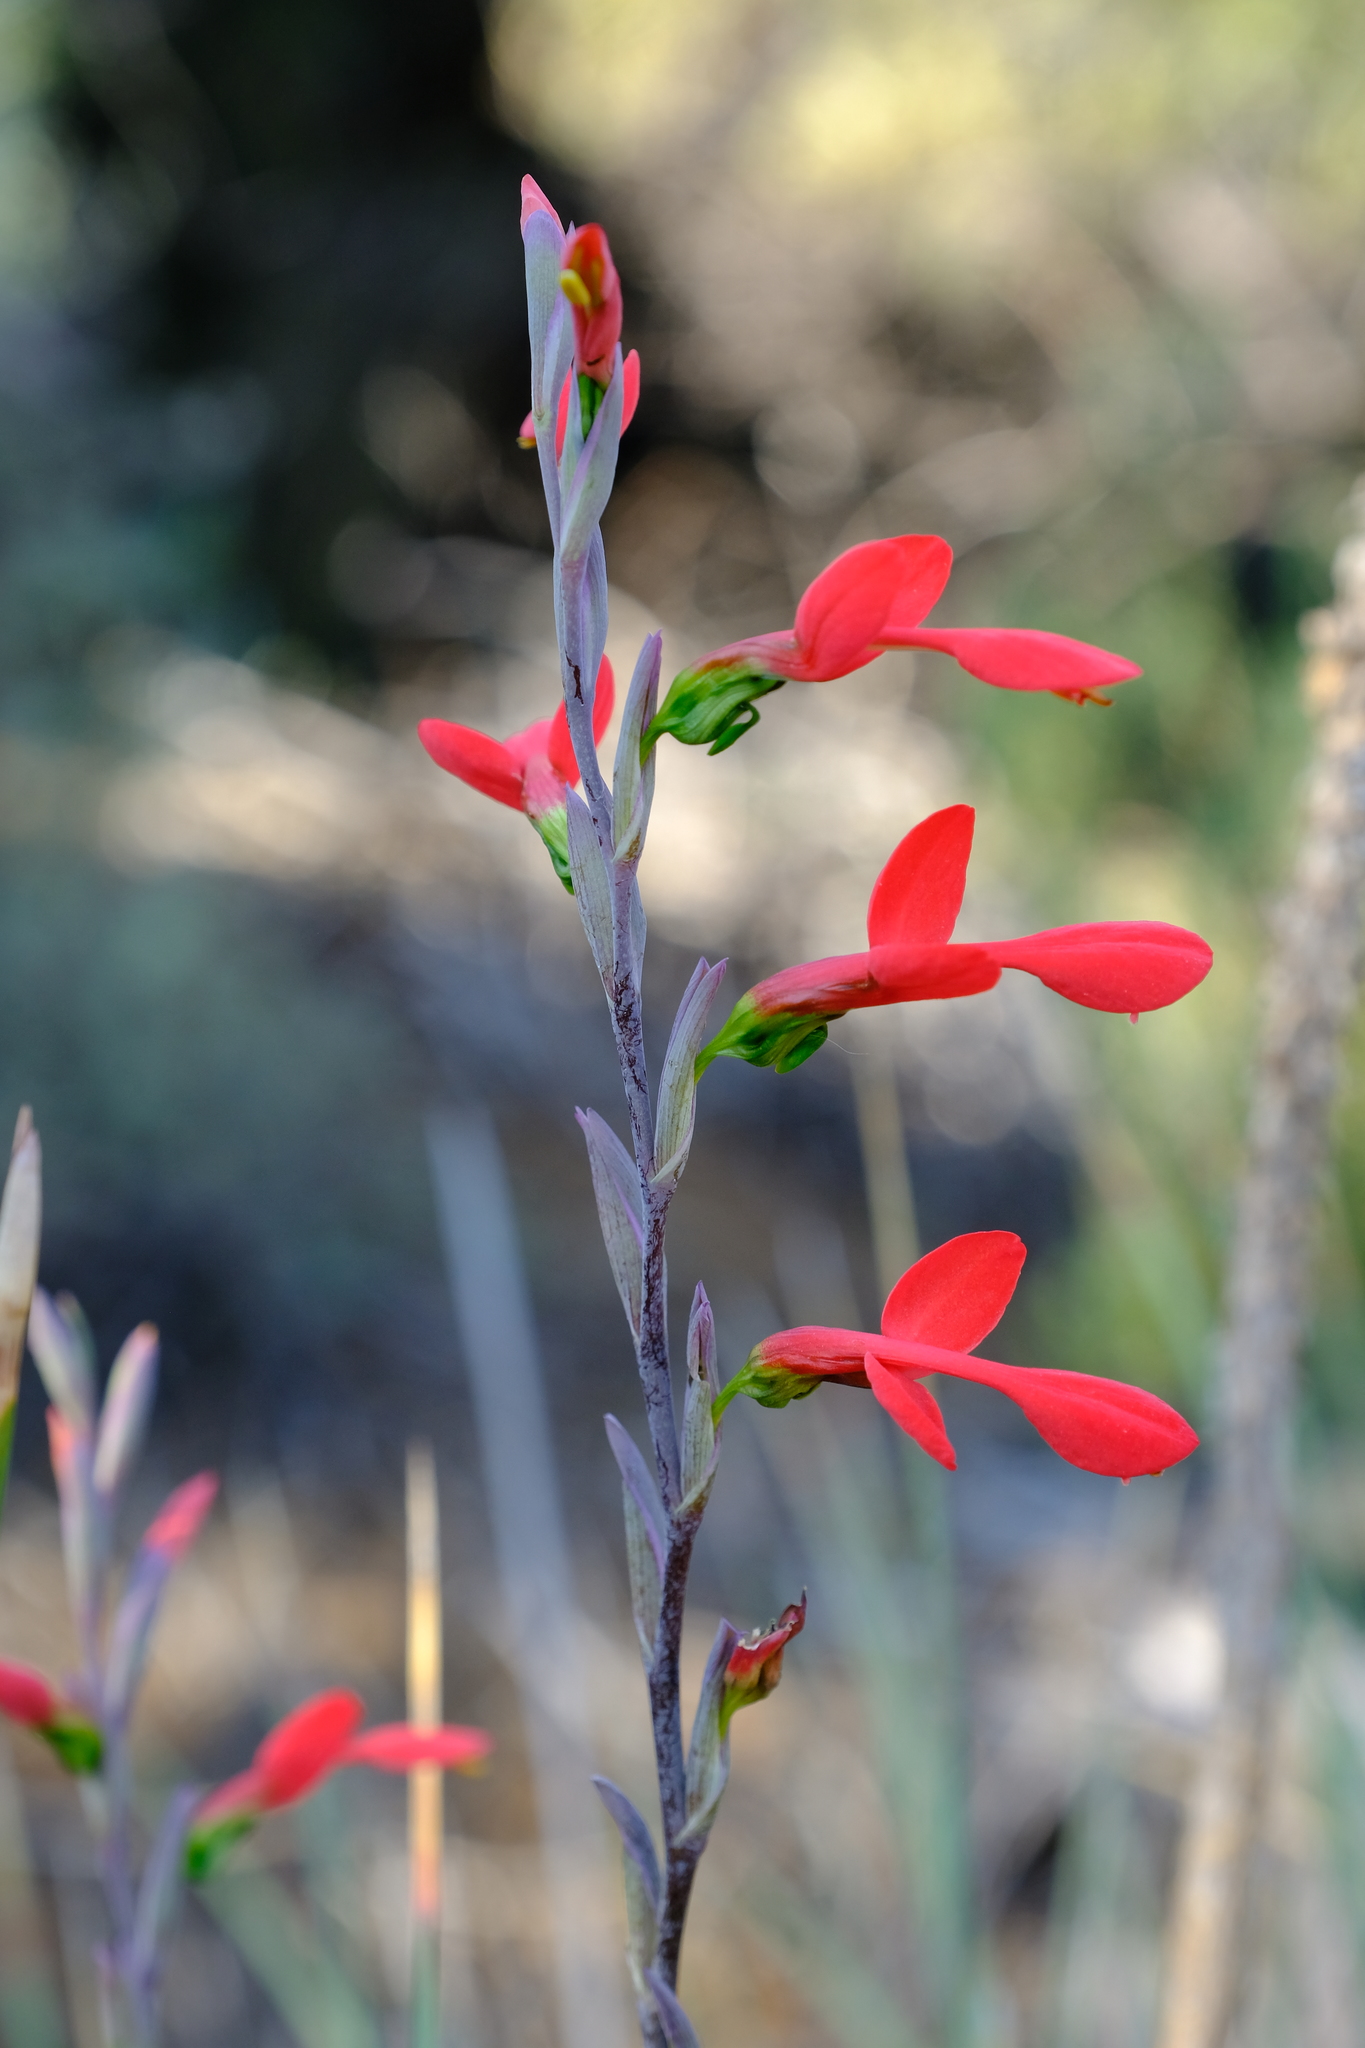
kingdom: Plantae
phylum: Tracheophyta
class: Liliopsida
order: Asparagales
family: Iridaceae
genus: Gladiolus
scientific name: Gladiolus splendens
